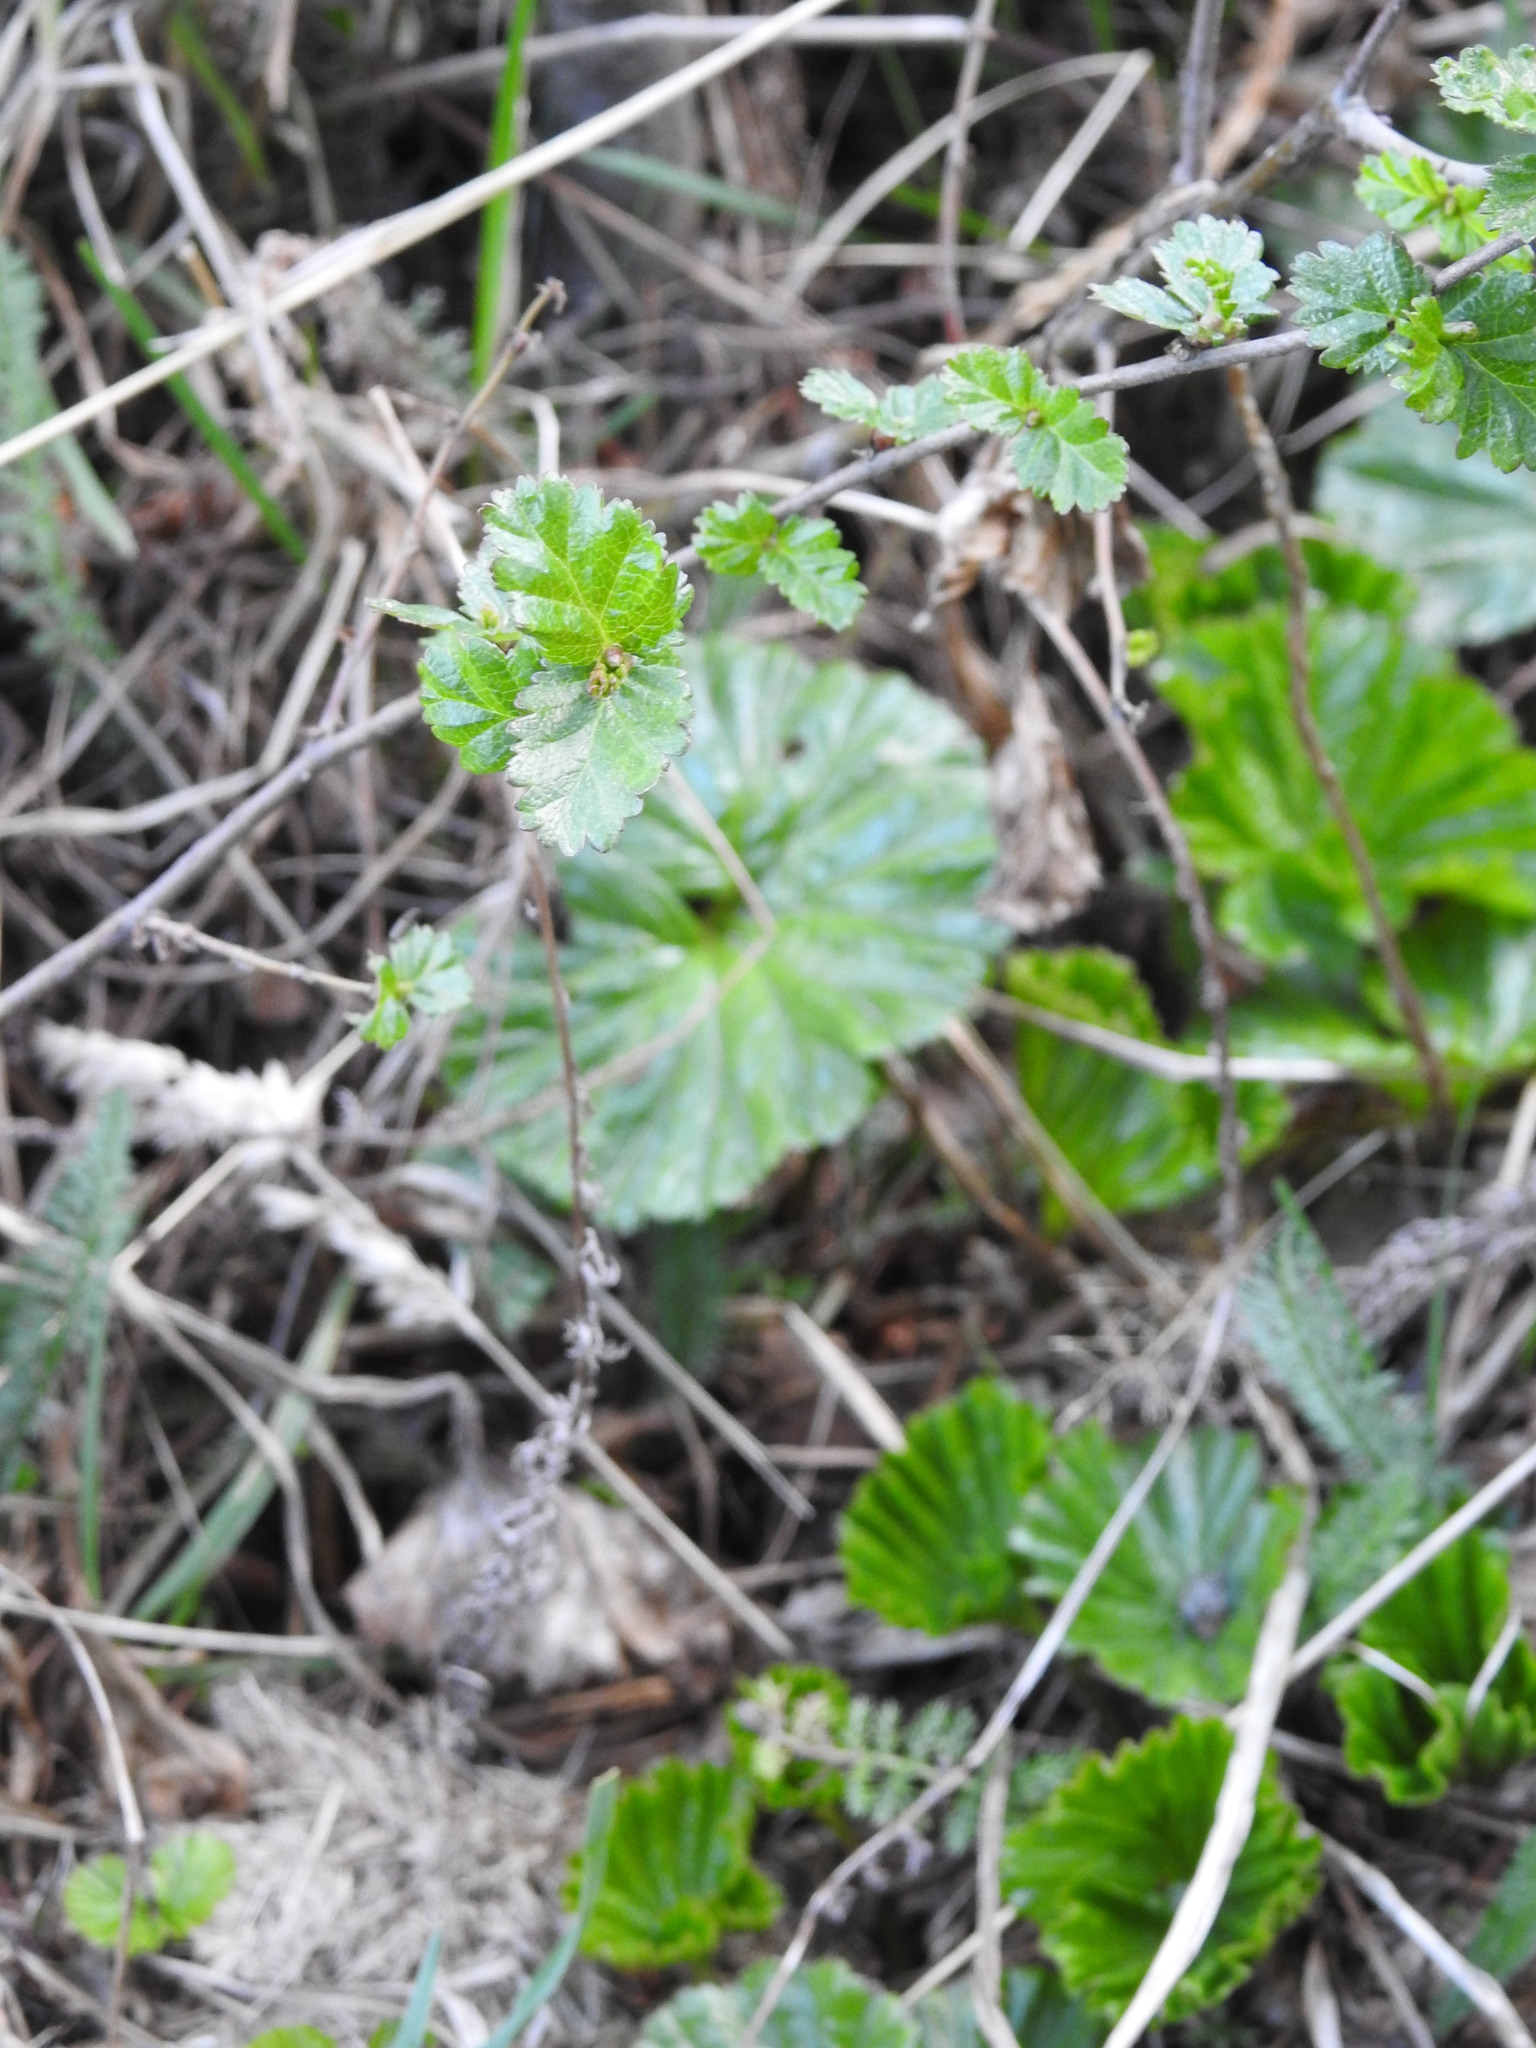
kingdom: Plantae
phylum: Tracheophyta
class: Magnoliopsida
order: Gunnerales
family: Gunneraceae
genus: Gunnera
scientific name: Gunnera magellanica
